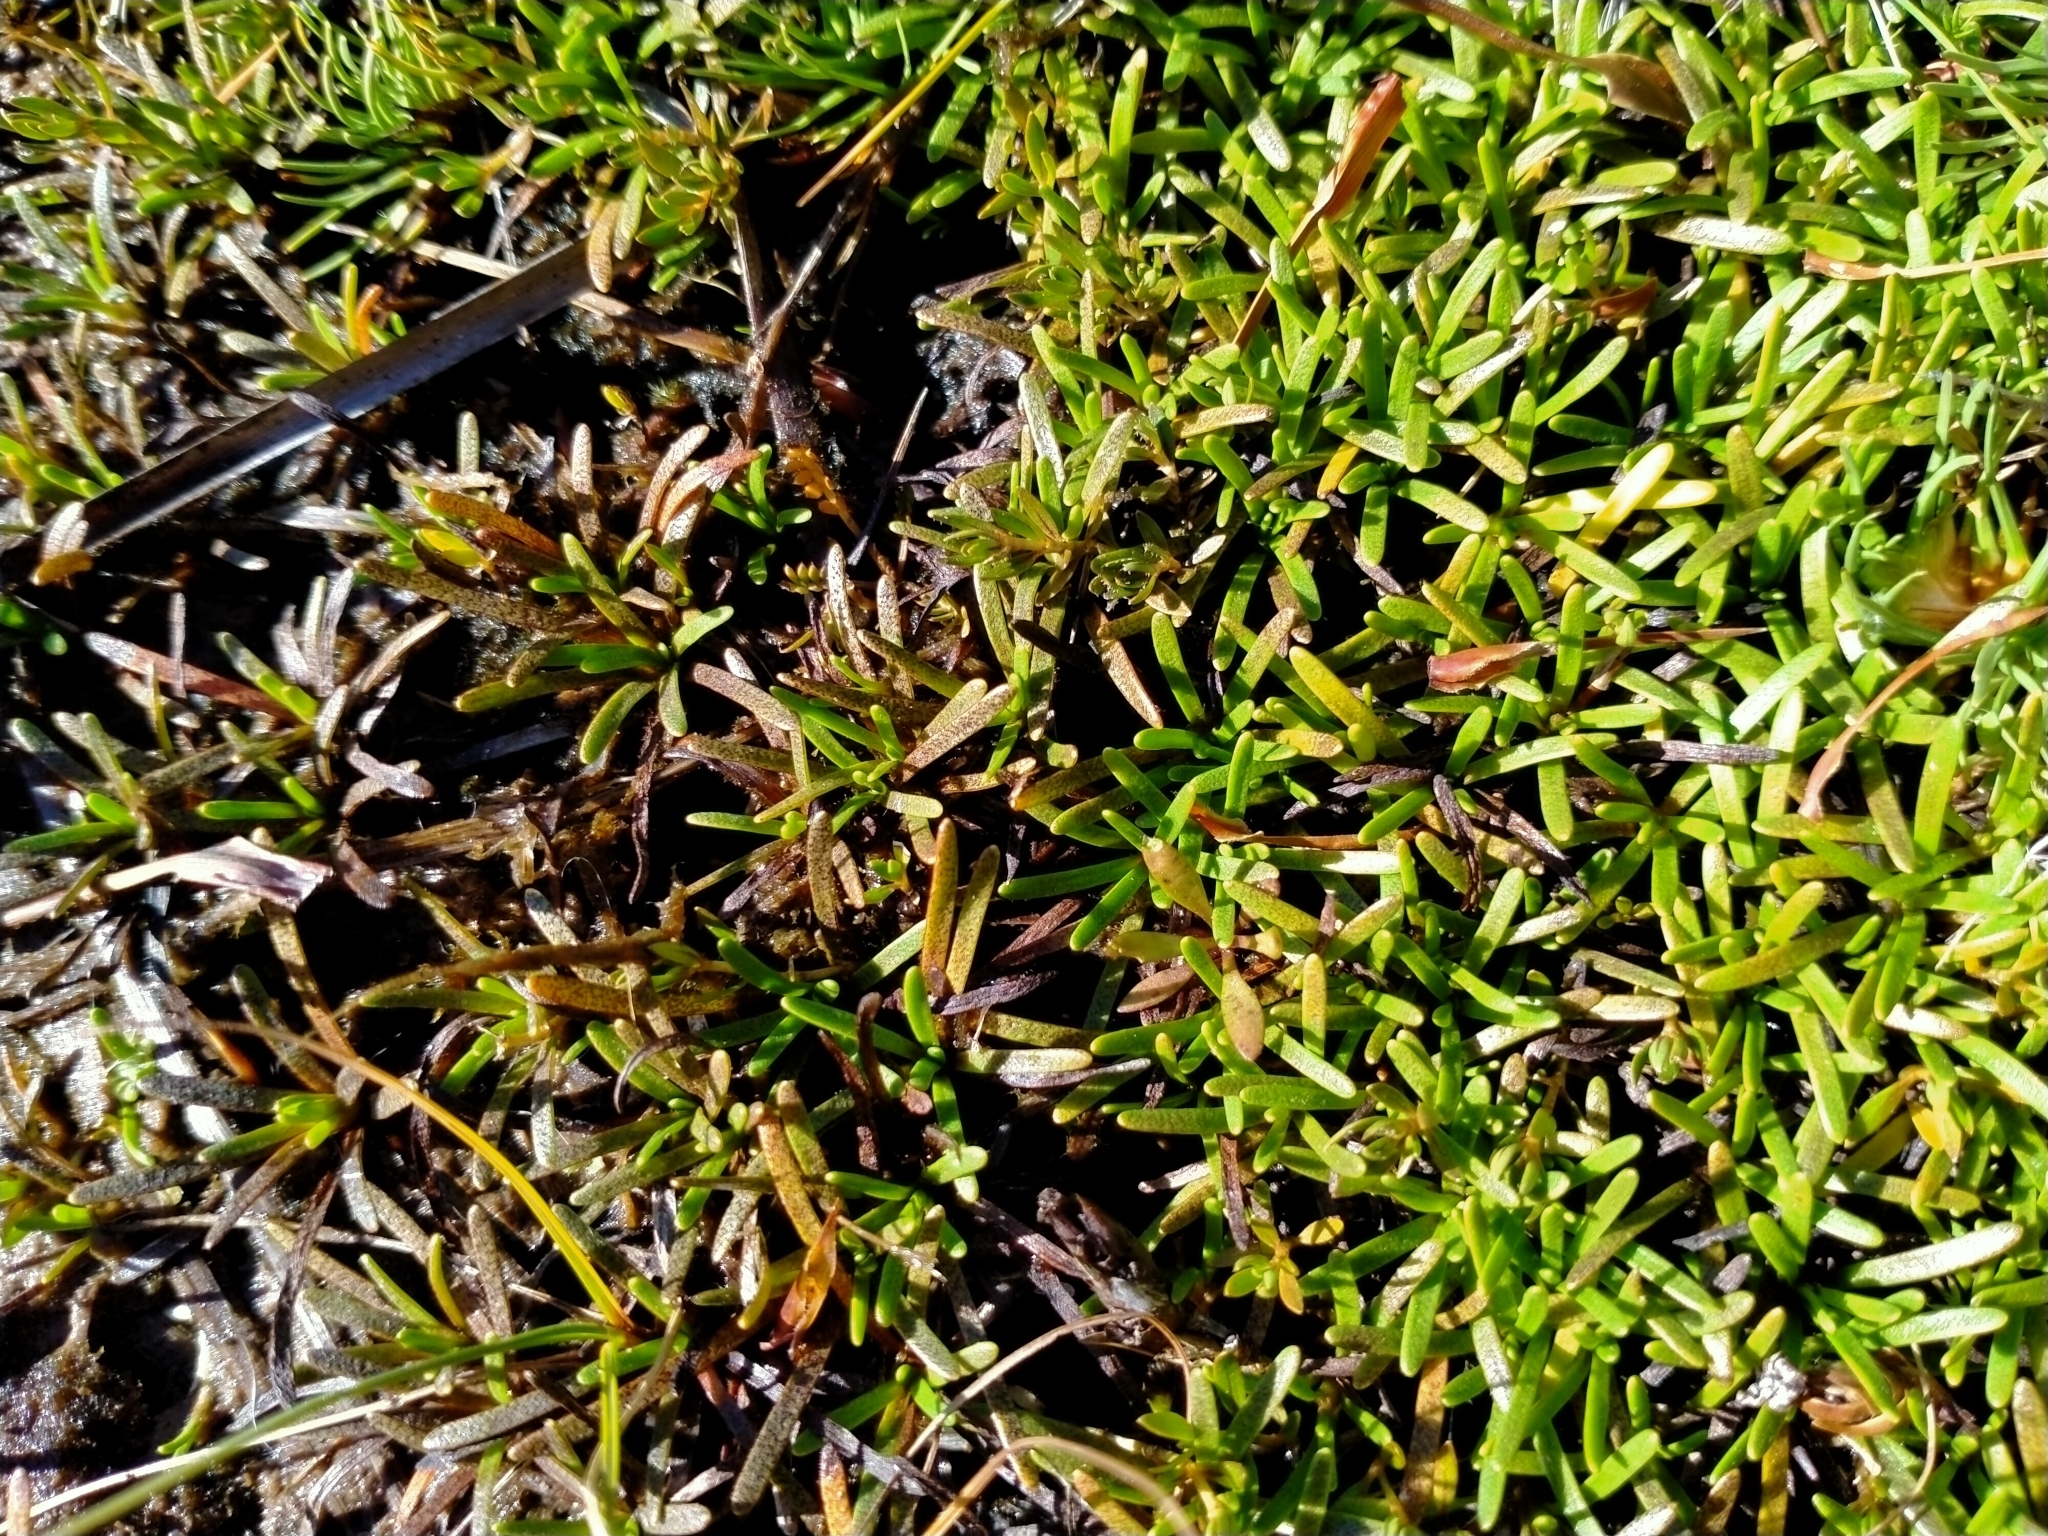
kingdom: Plantae
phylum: Tracheophyta
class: Magnoliopsida
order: Asterales
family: Asteraceae
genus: Abrotanella
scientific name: Abrotanella caespitosa
